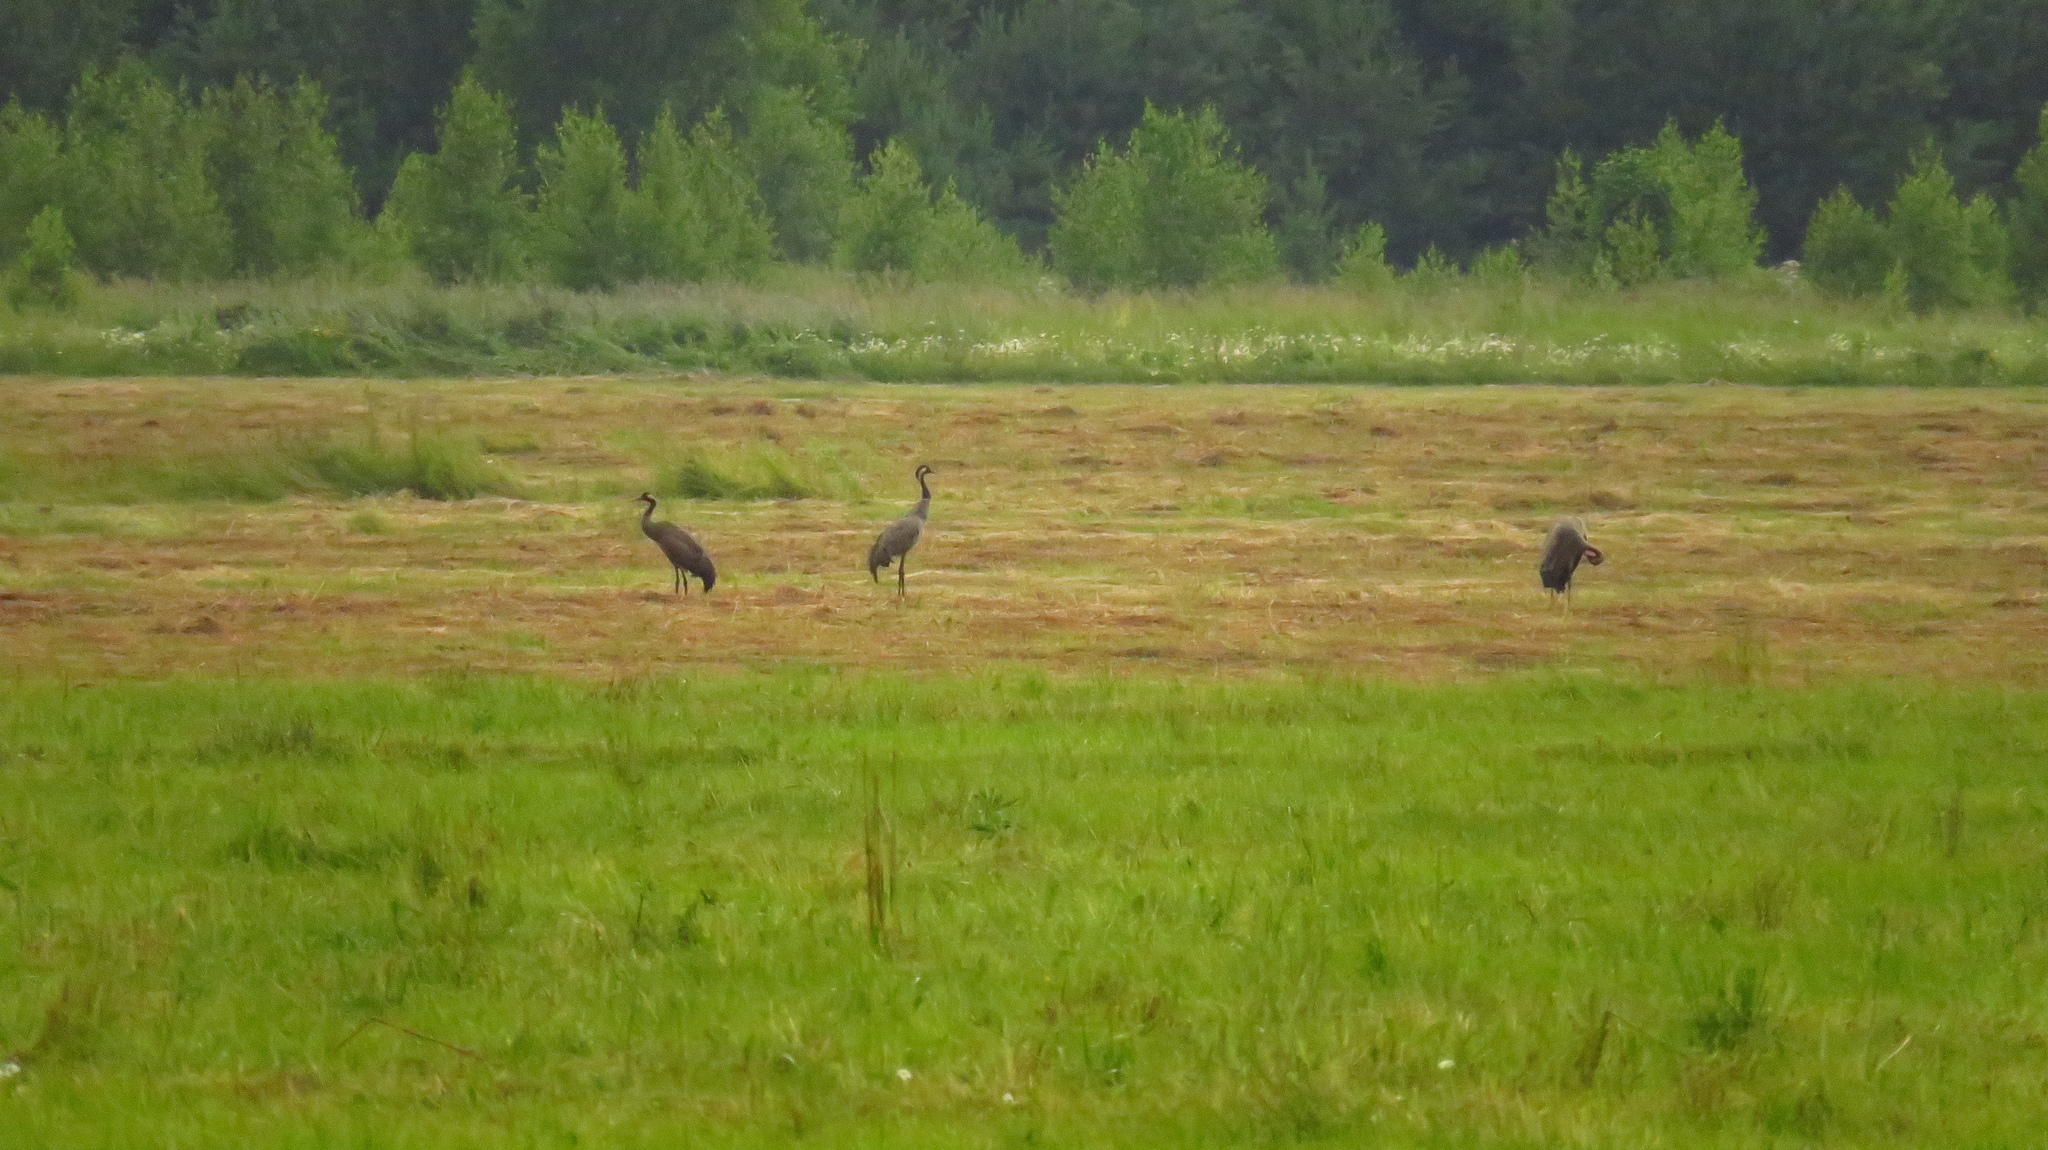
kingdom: Animalia
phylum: Chordata
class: Aves
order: Gruiformes
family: Gruidae
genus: Grus
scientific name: Grus grus
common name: Common crane
